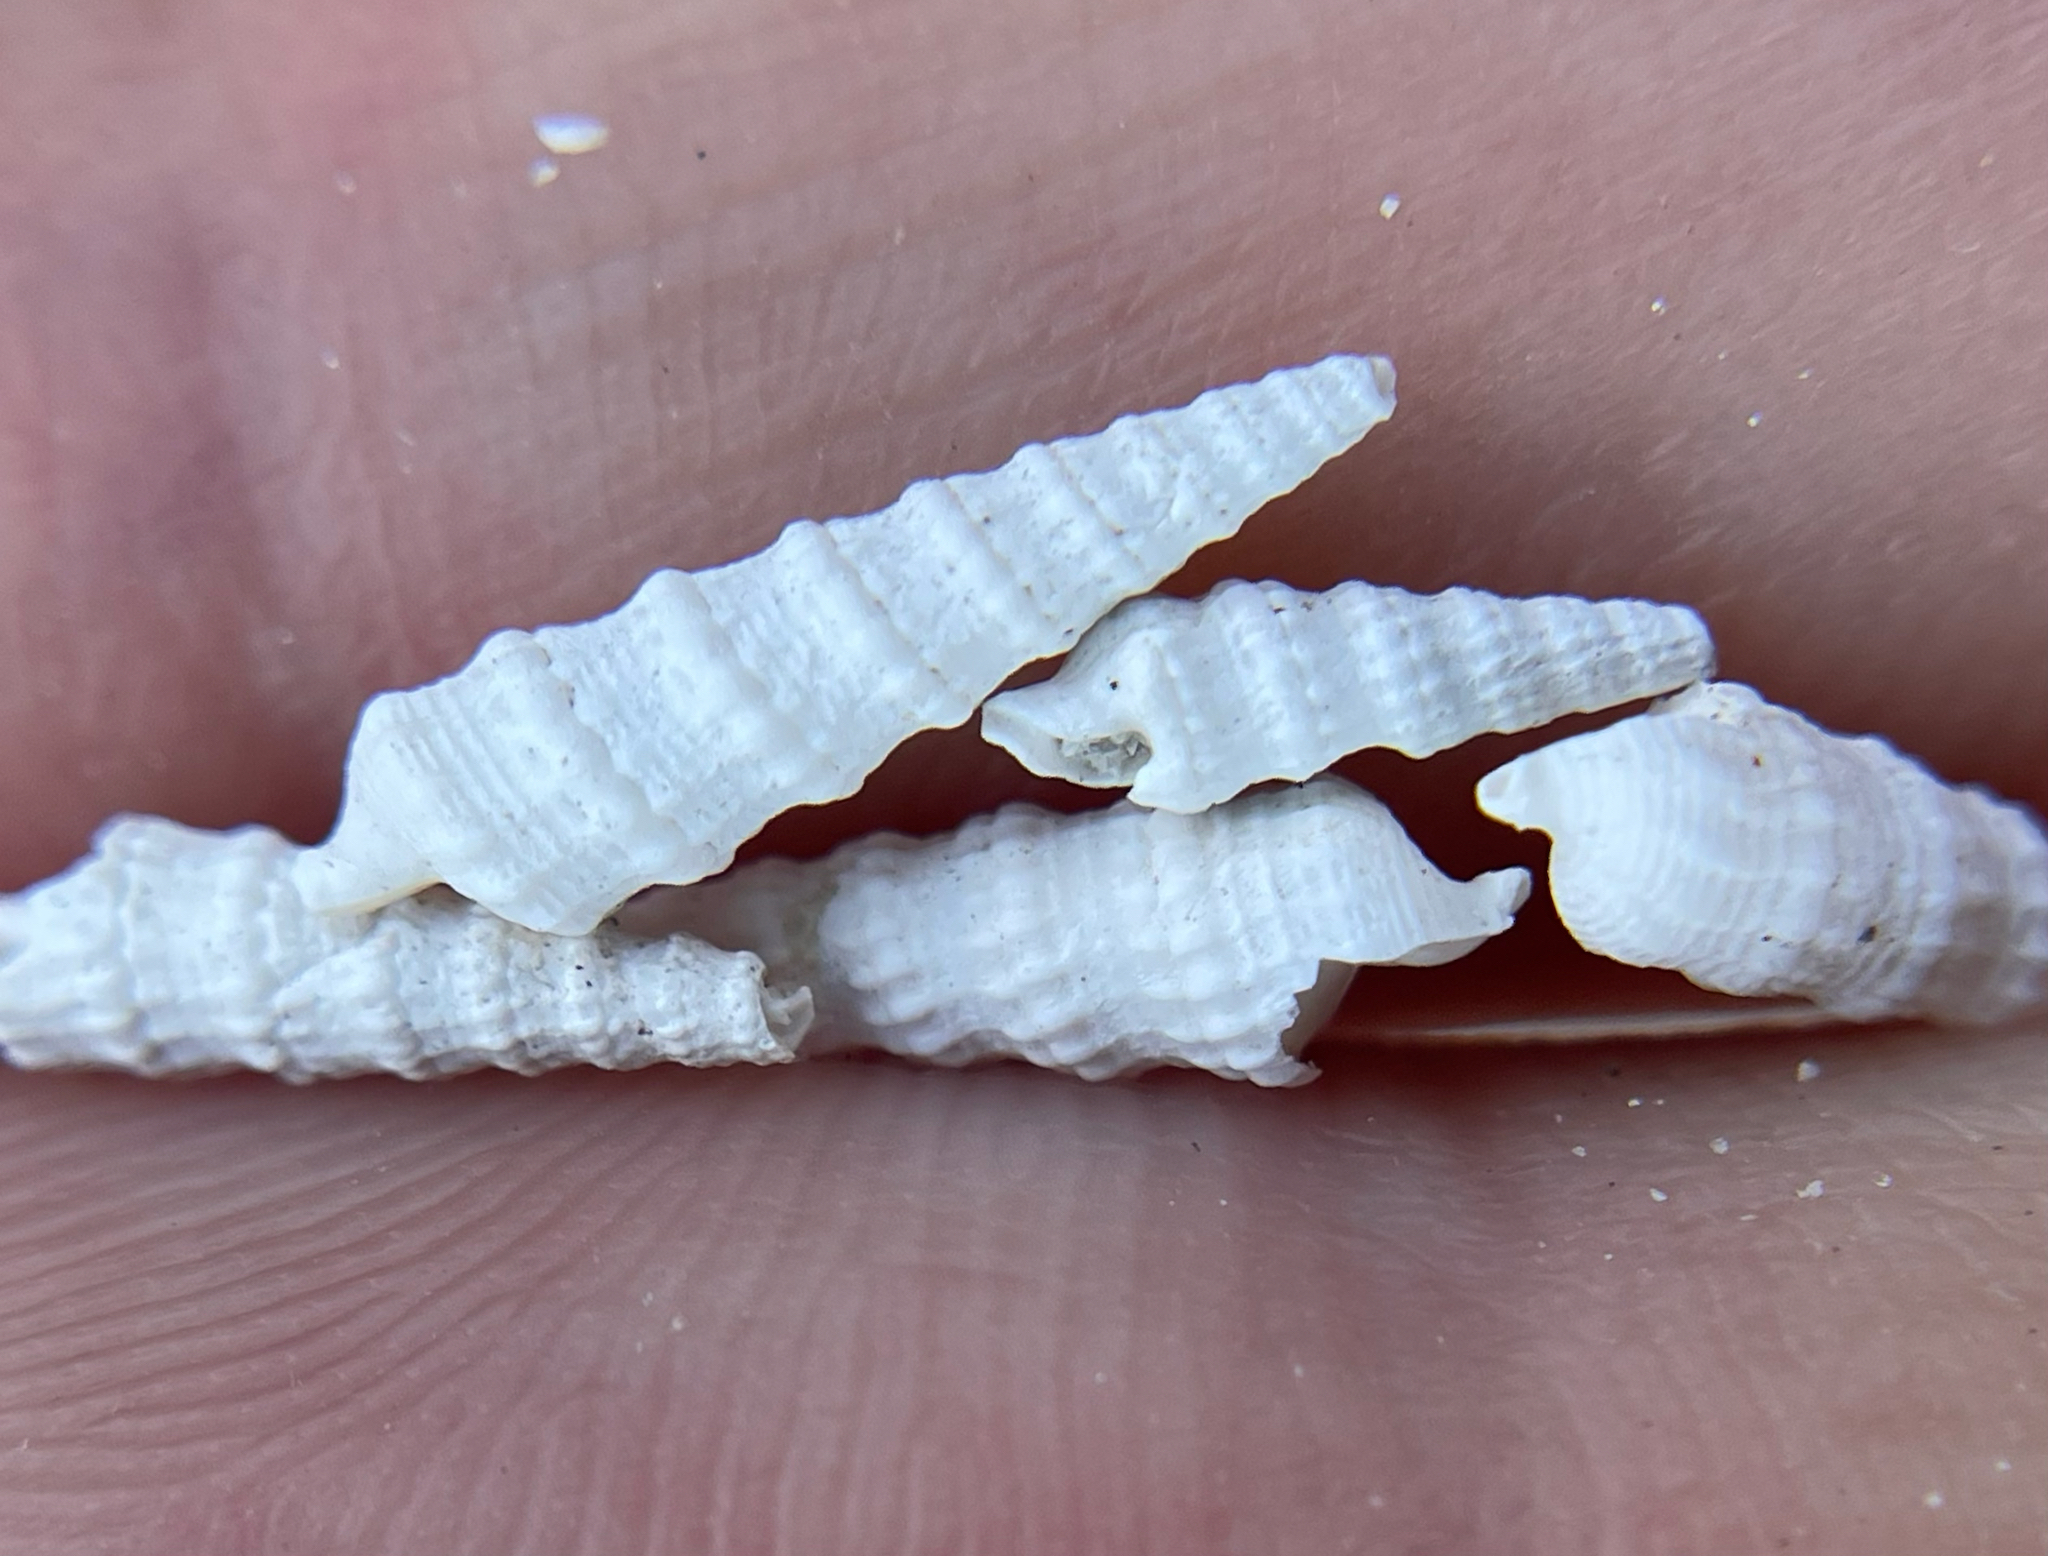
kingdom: Animalia
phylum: Mollusca
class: Gastropoda
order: Neogastropoda
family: Terebridae
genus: Neoterebra
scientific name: Neoterebra concava
